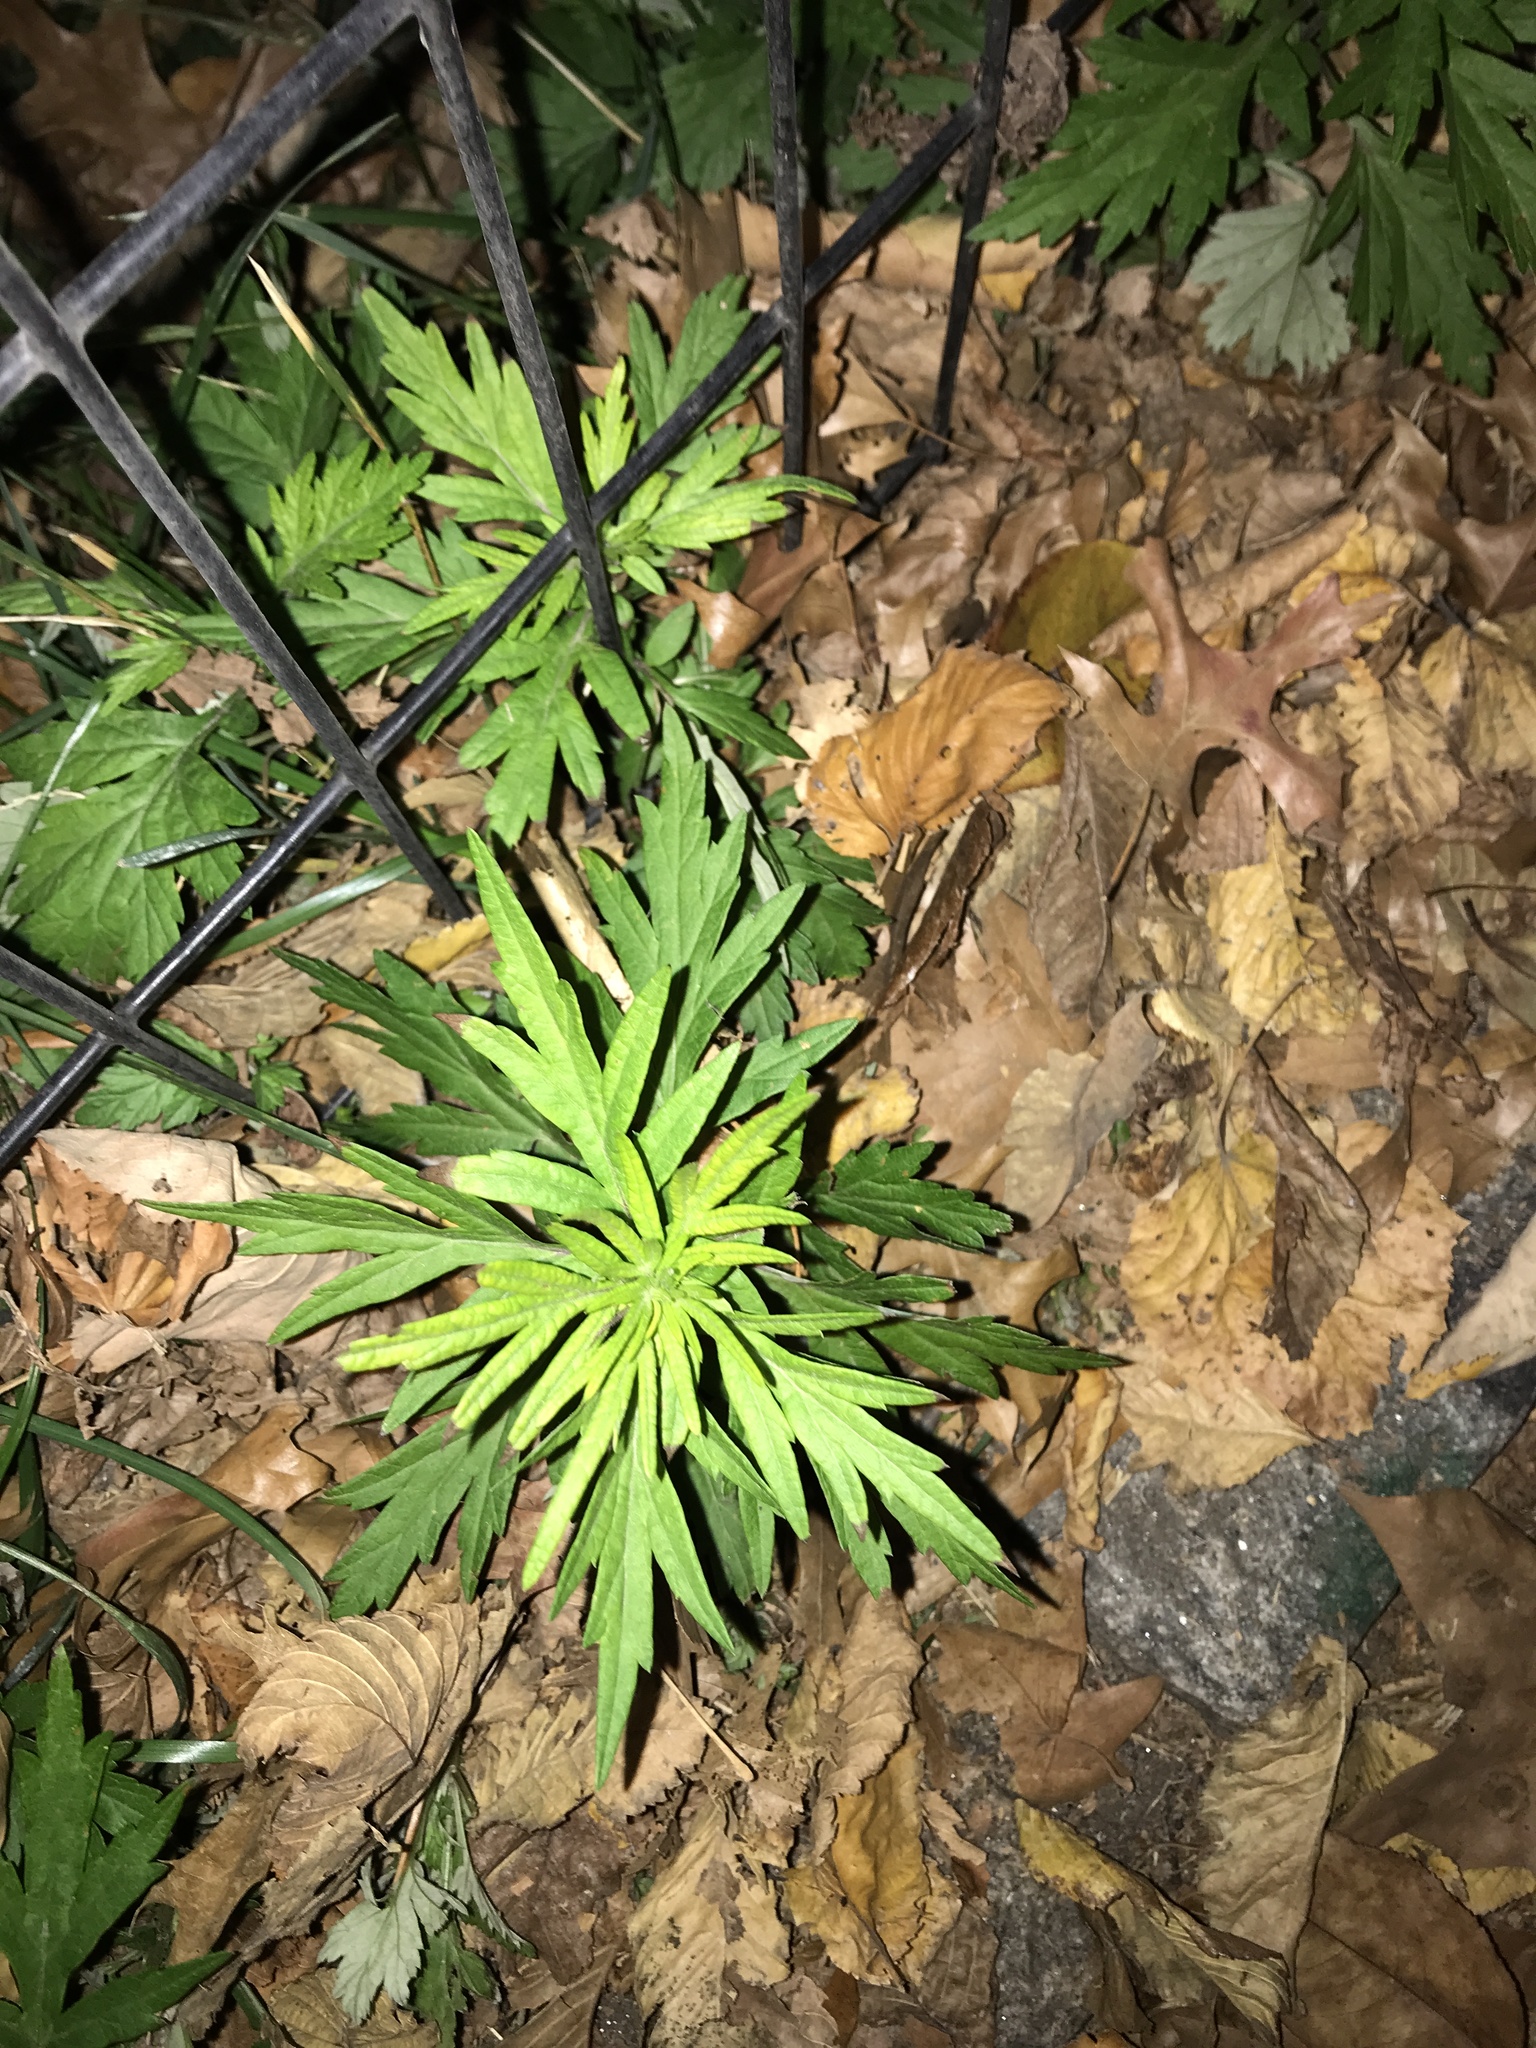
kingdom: Plantae
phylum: Tracheophyta
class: Magnoliopsida
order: Asterales
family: Asteraceae
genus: Artemisia
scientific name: Artemisia vulgaris
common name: Mugwort
